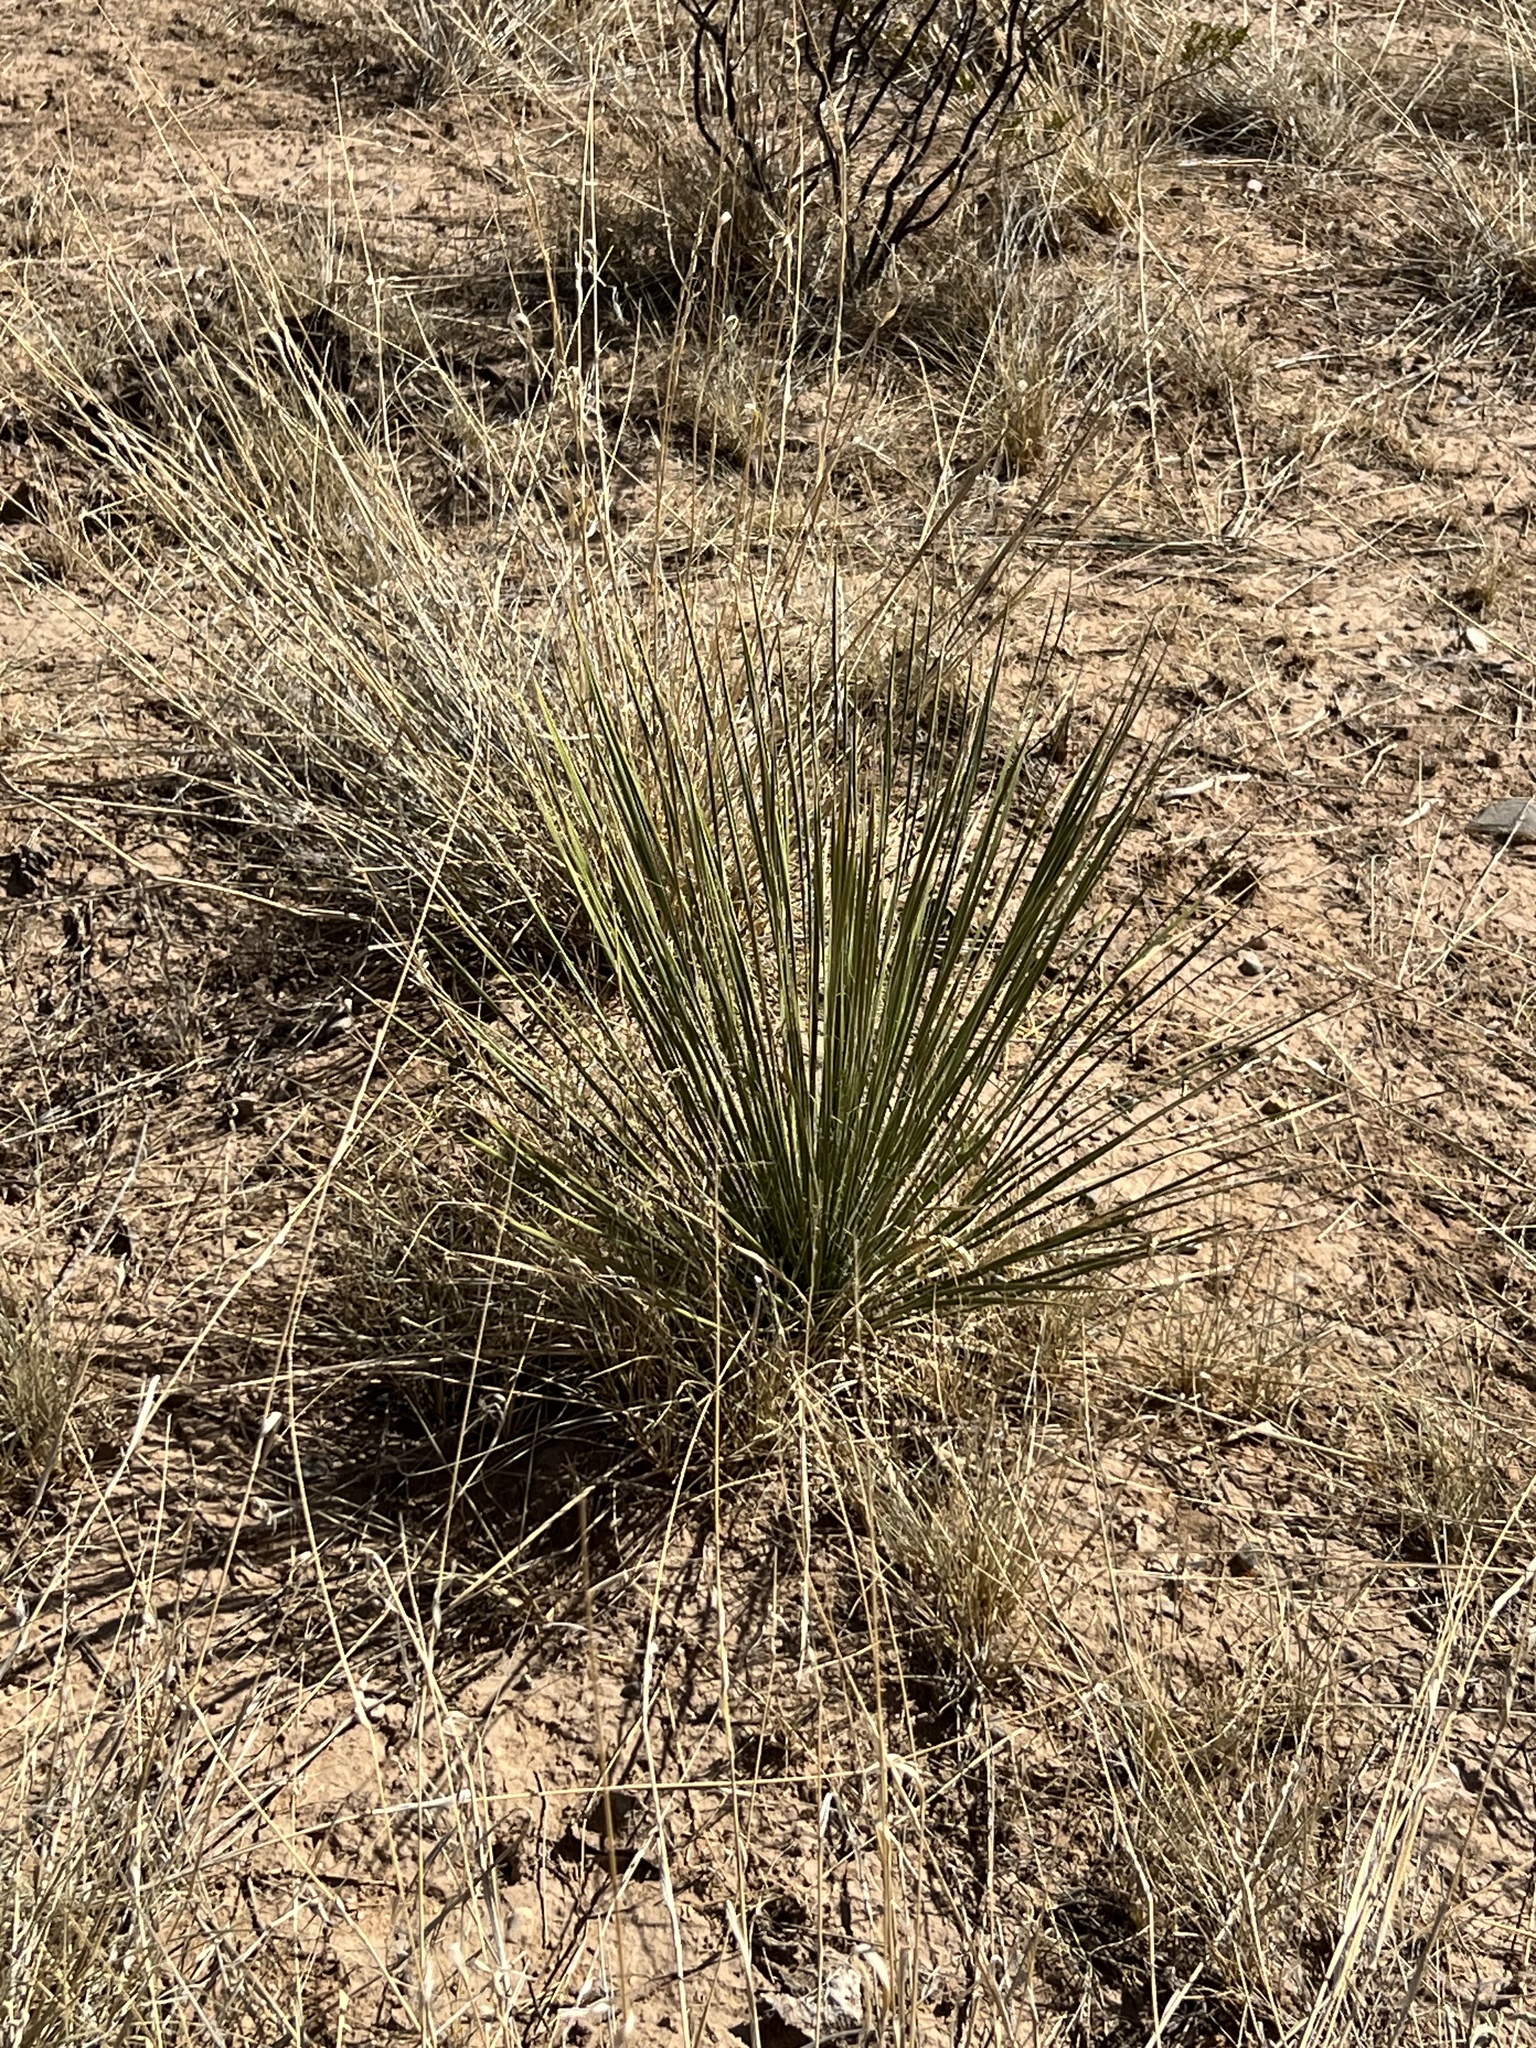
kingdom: Plantae
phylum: Tracheophyta
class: Liliopsida
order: Asparagales
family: Asparagaceae
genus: Yucca
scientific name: Yucca elata
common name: Palmella
